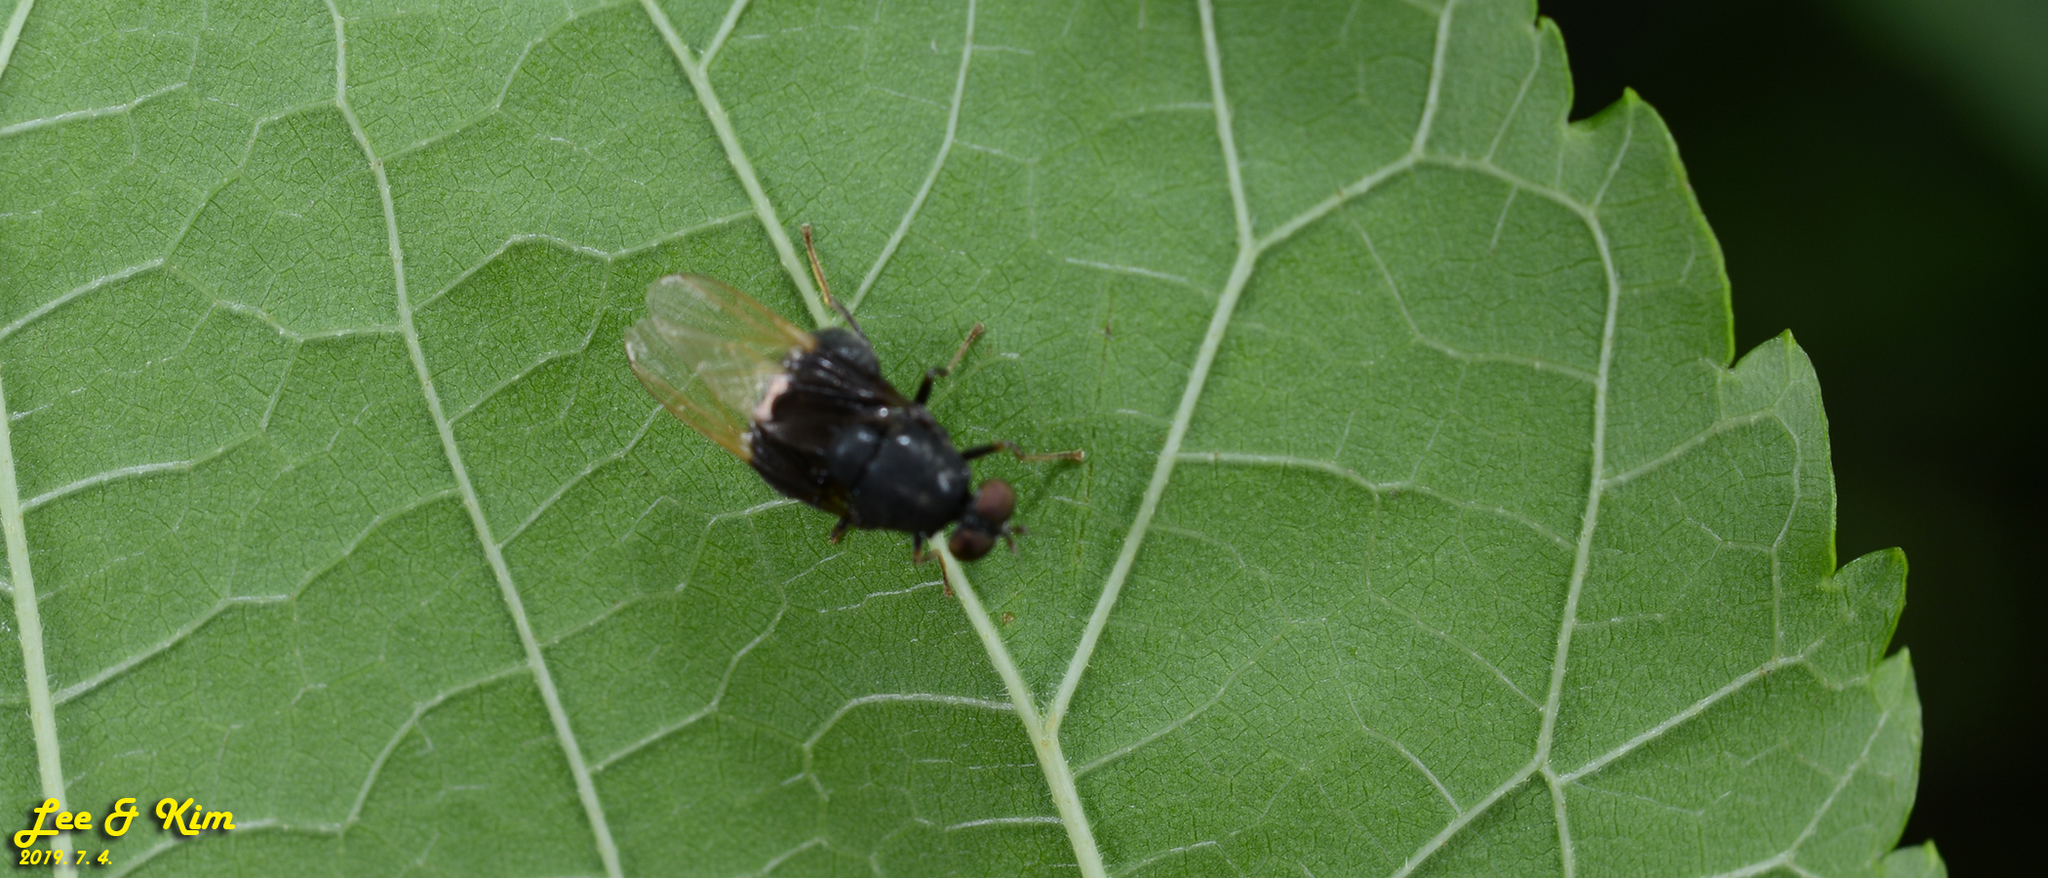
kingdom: Animalia
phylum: Arthropoda
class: Insecta
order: Diptera
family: Stratiomyidae
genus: Craspedometopon
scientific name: Craspedometopon
